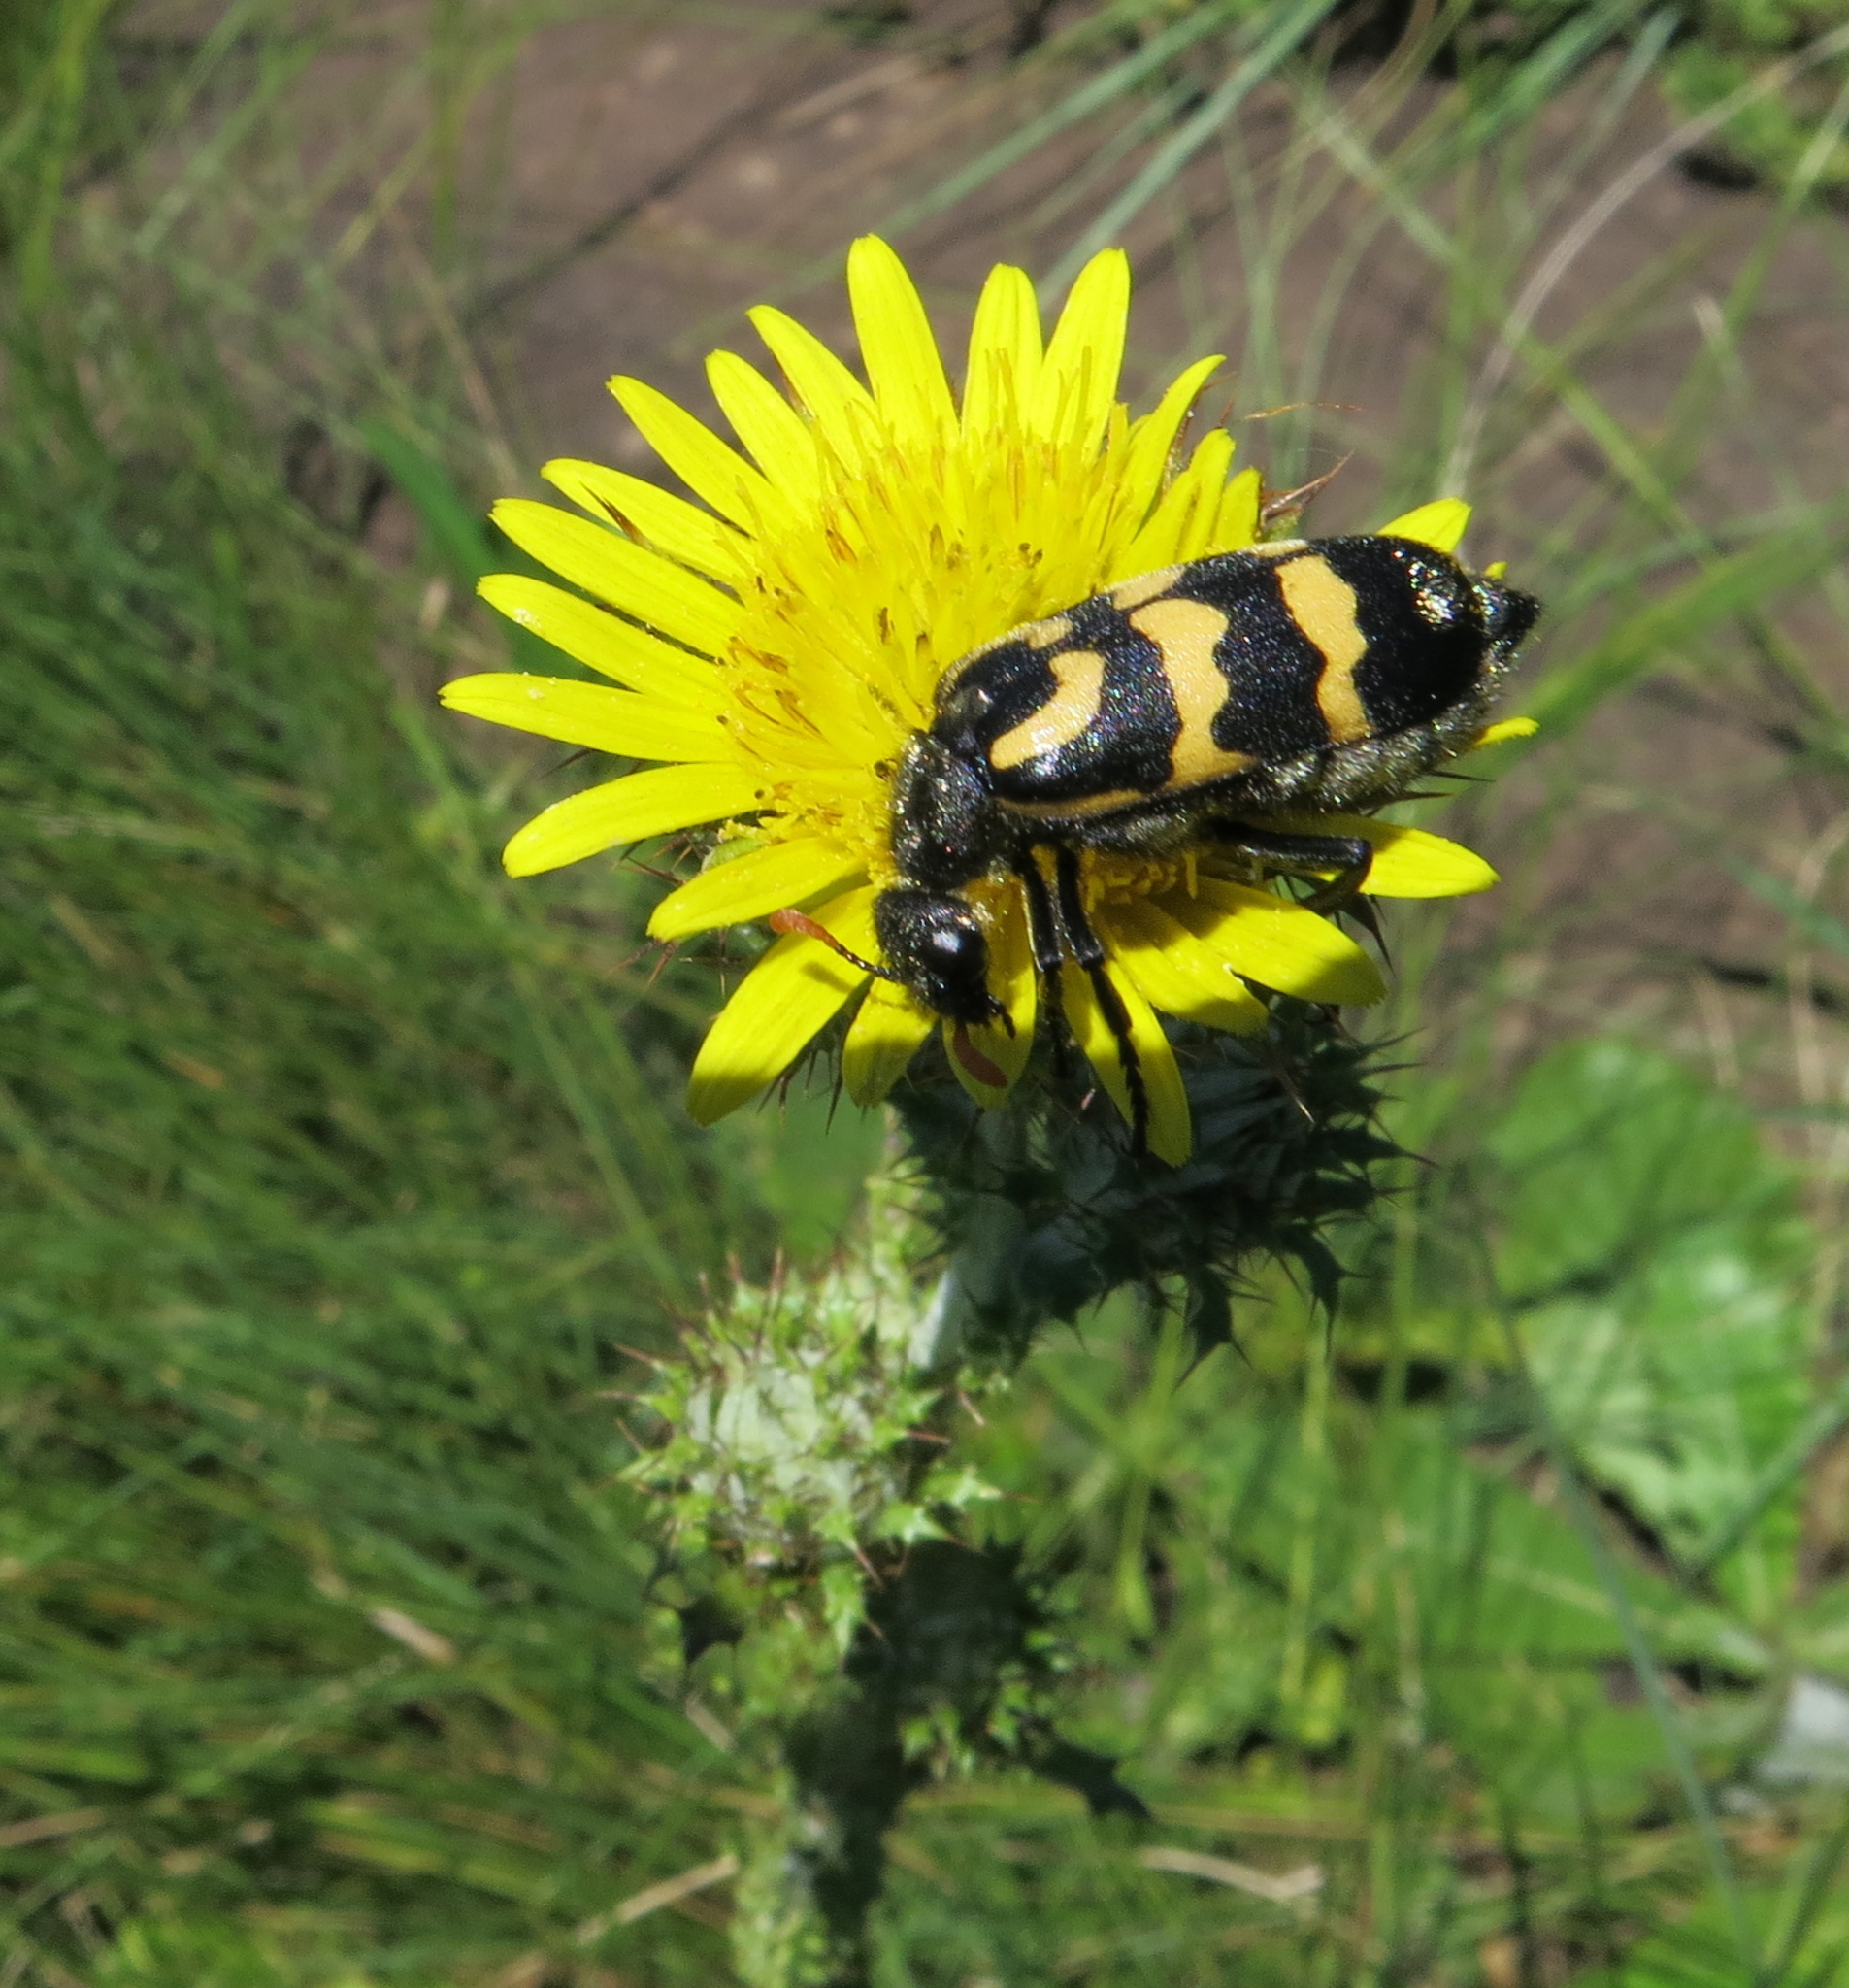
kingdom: Animalia
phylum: Arthropoda
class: Insecta
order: Coleoptera
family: Meloidae
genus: Meloe
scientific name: Meloe lunata
